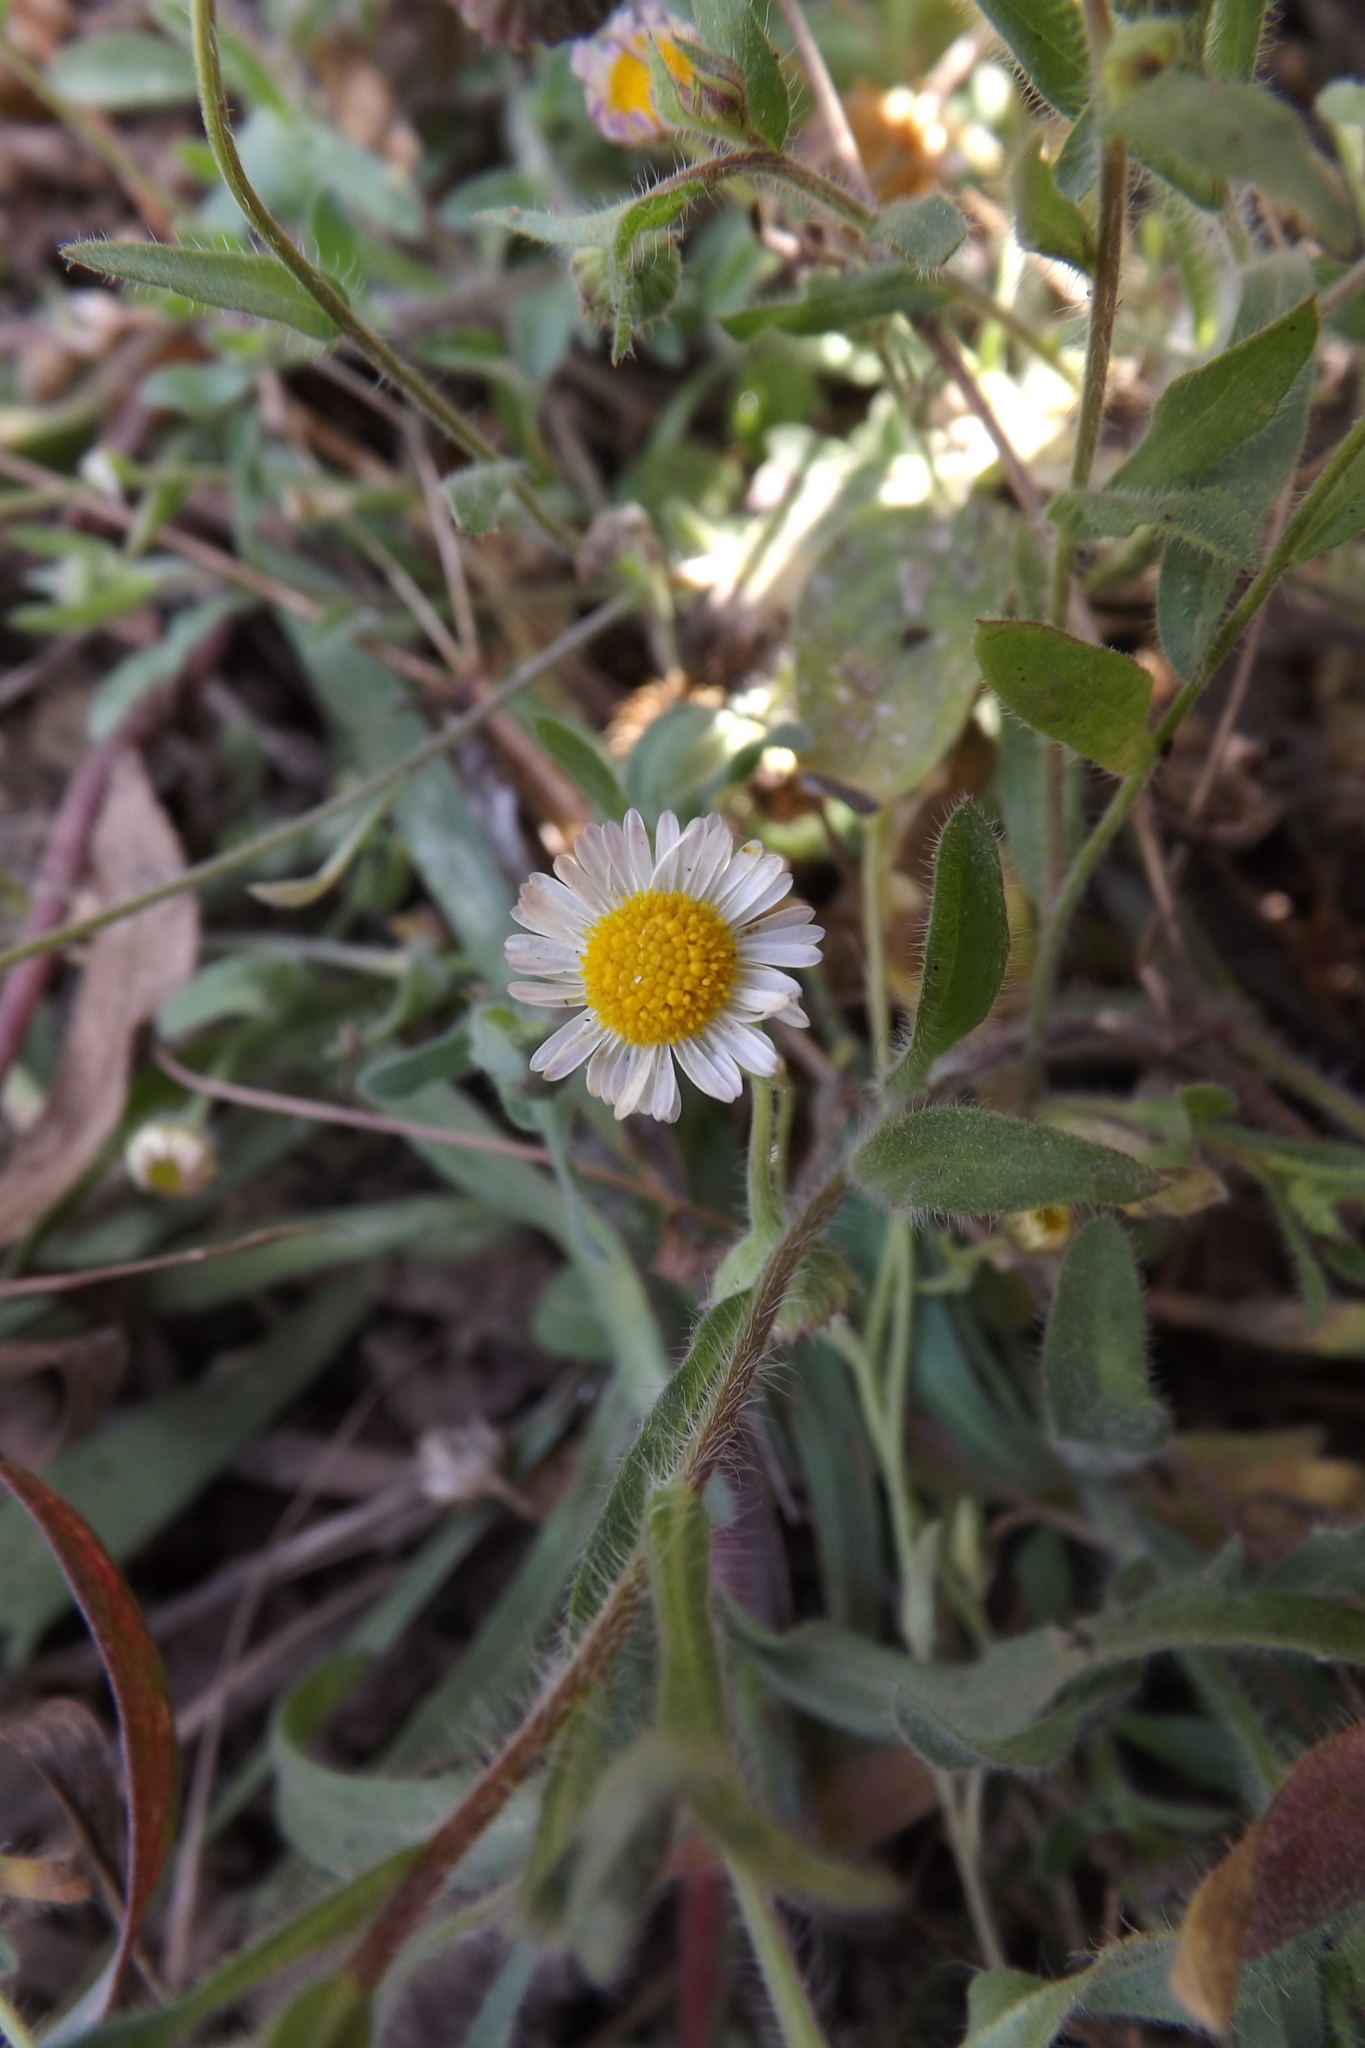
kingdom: Plantae
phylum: Tracheophyta
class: Magnoliopsida
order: Asterales
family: Asteraceae
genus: Erigeron
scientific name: Erigeron pubescens
